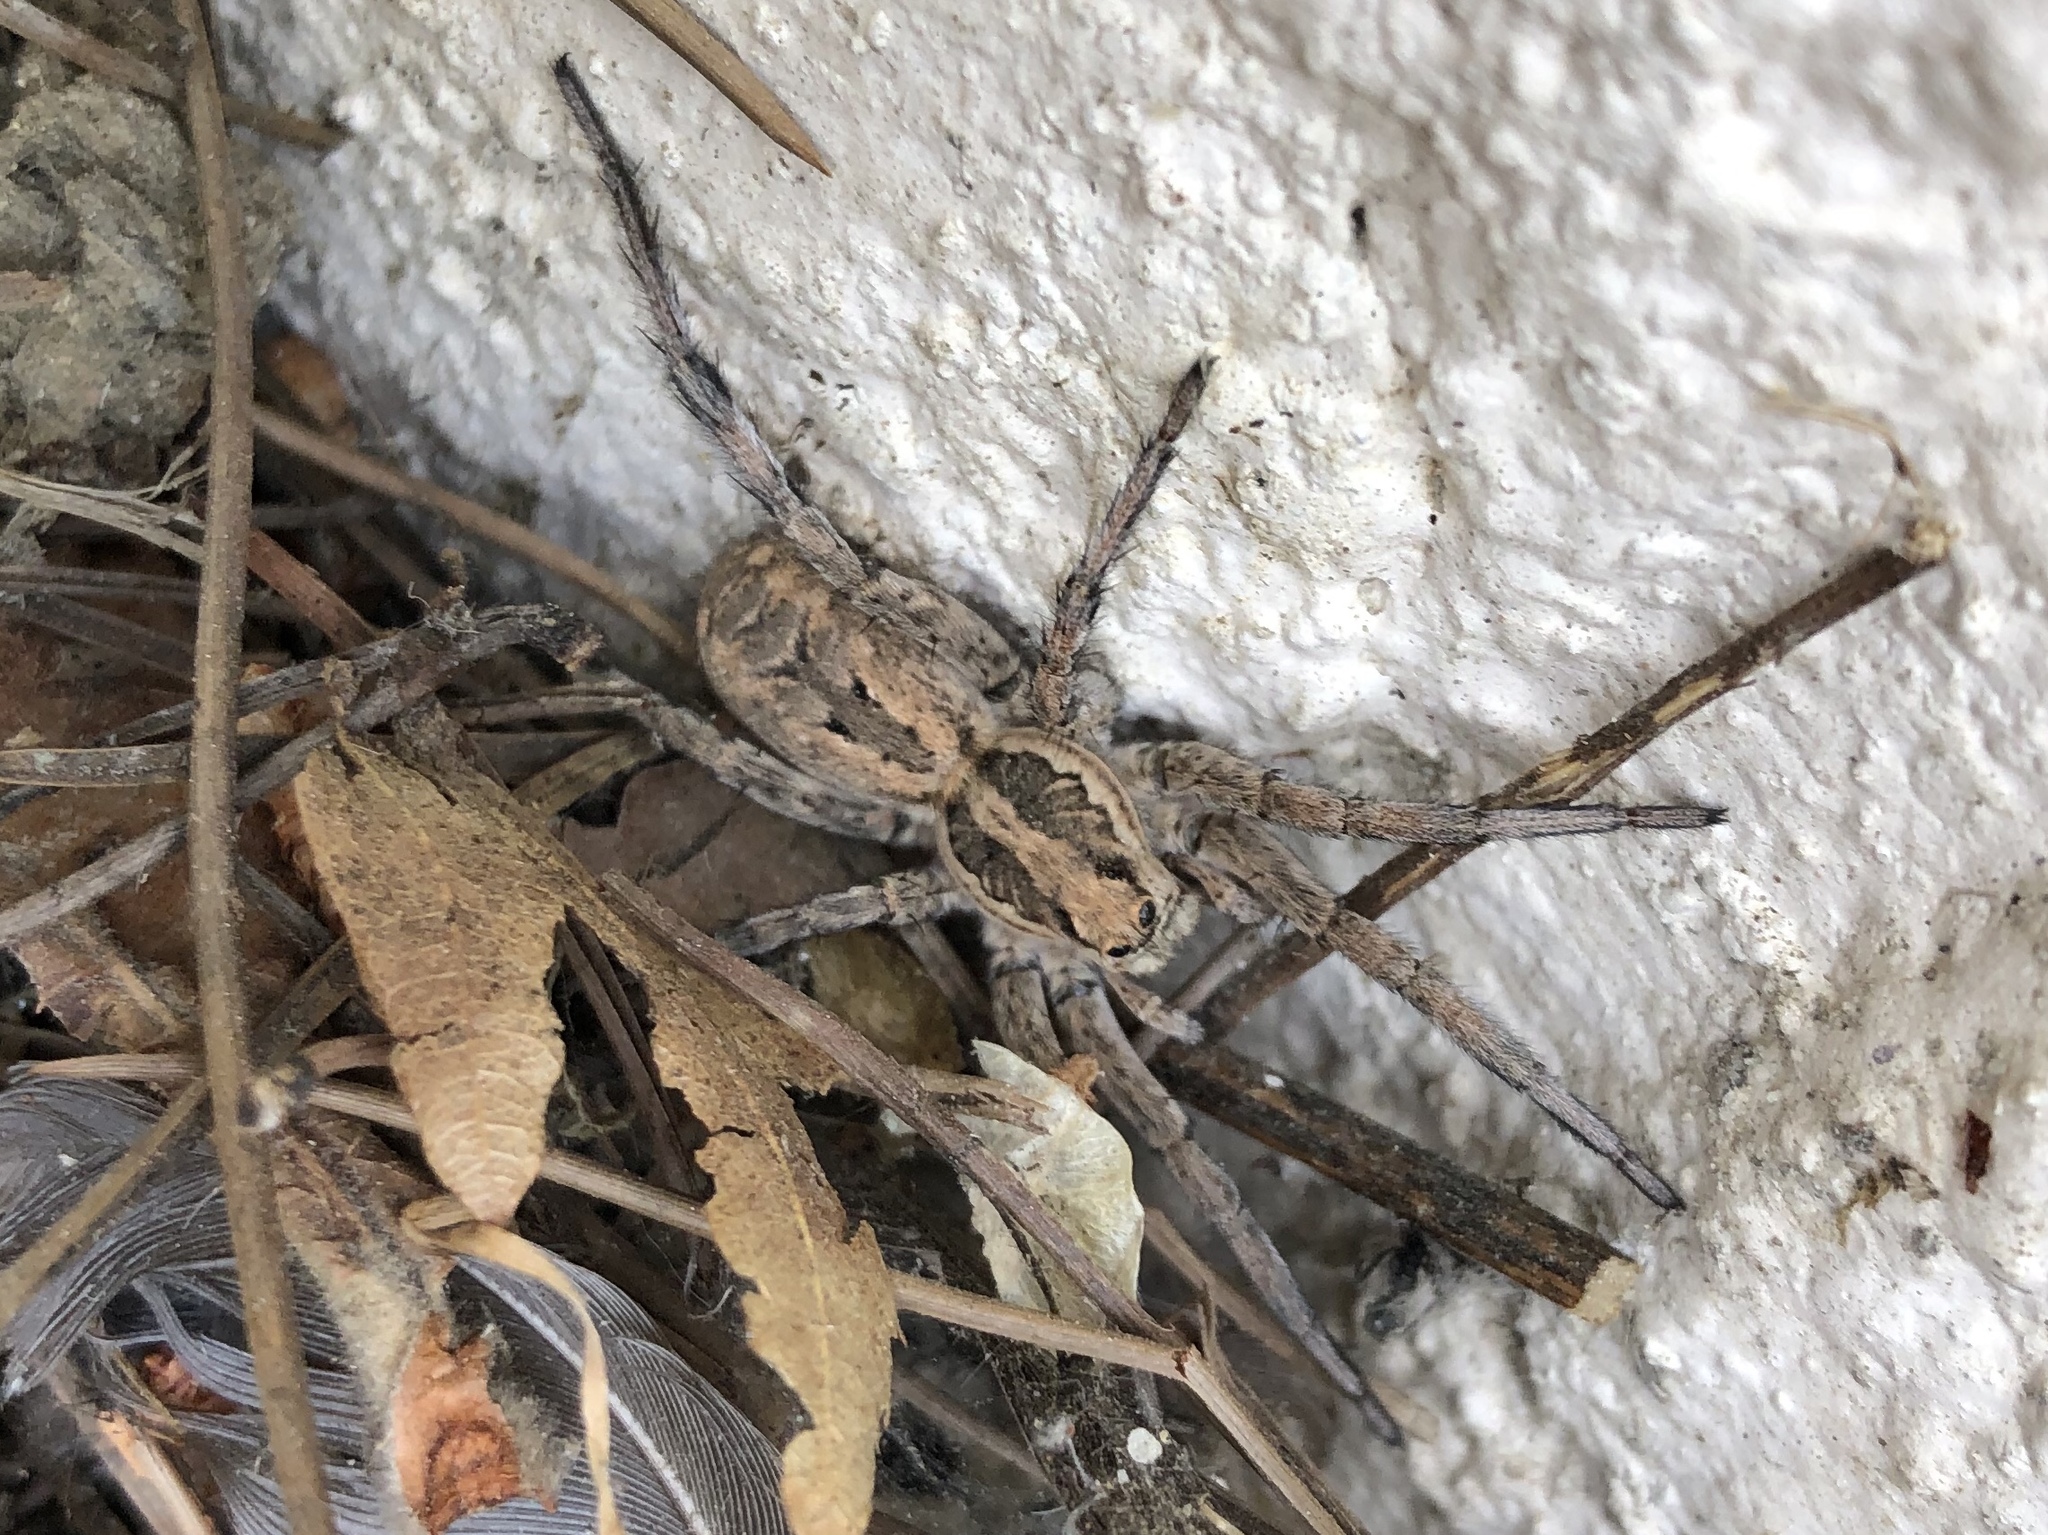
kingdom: Animalia
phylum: Arthropoda
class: Arachnida
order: Araneae
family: Lycosidae
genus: Lycosa
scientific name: Lycosa fasciiventris
